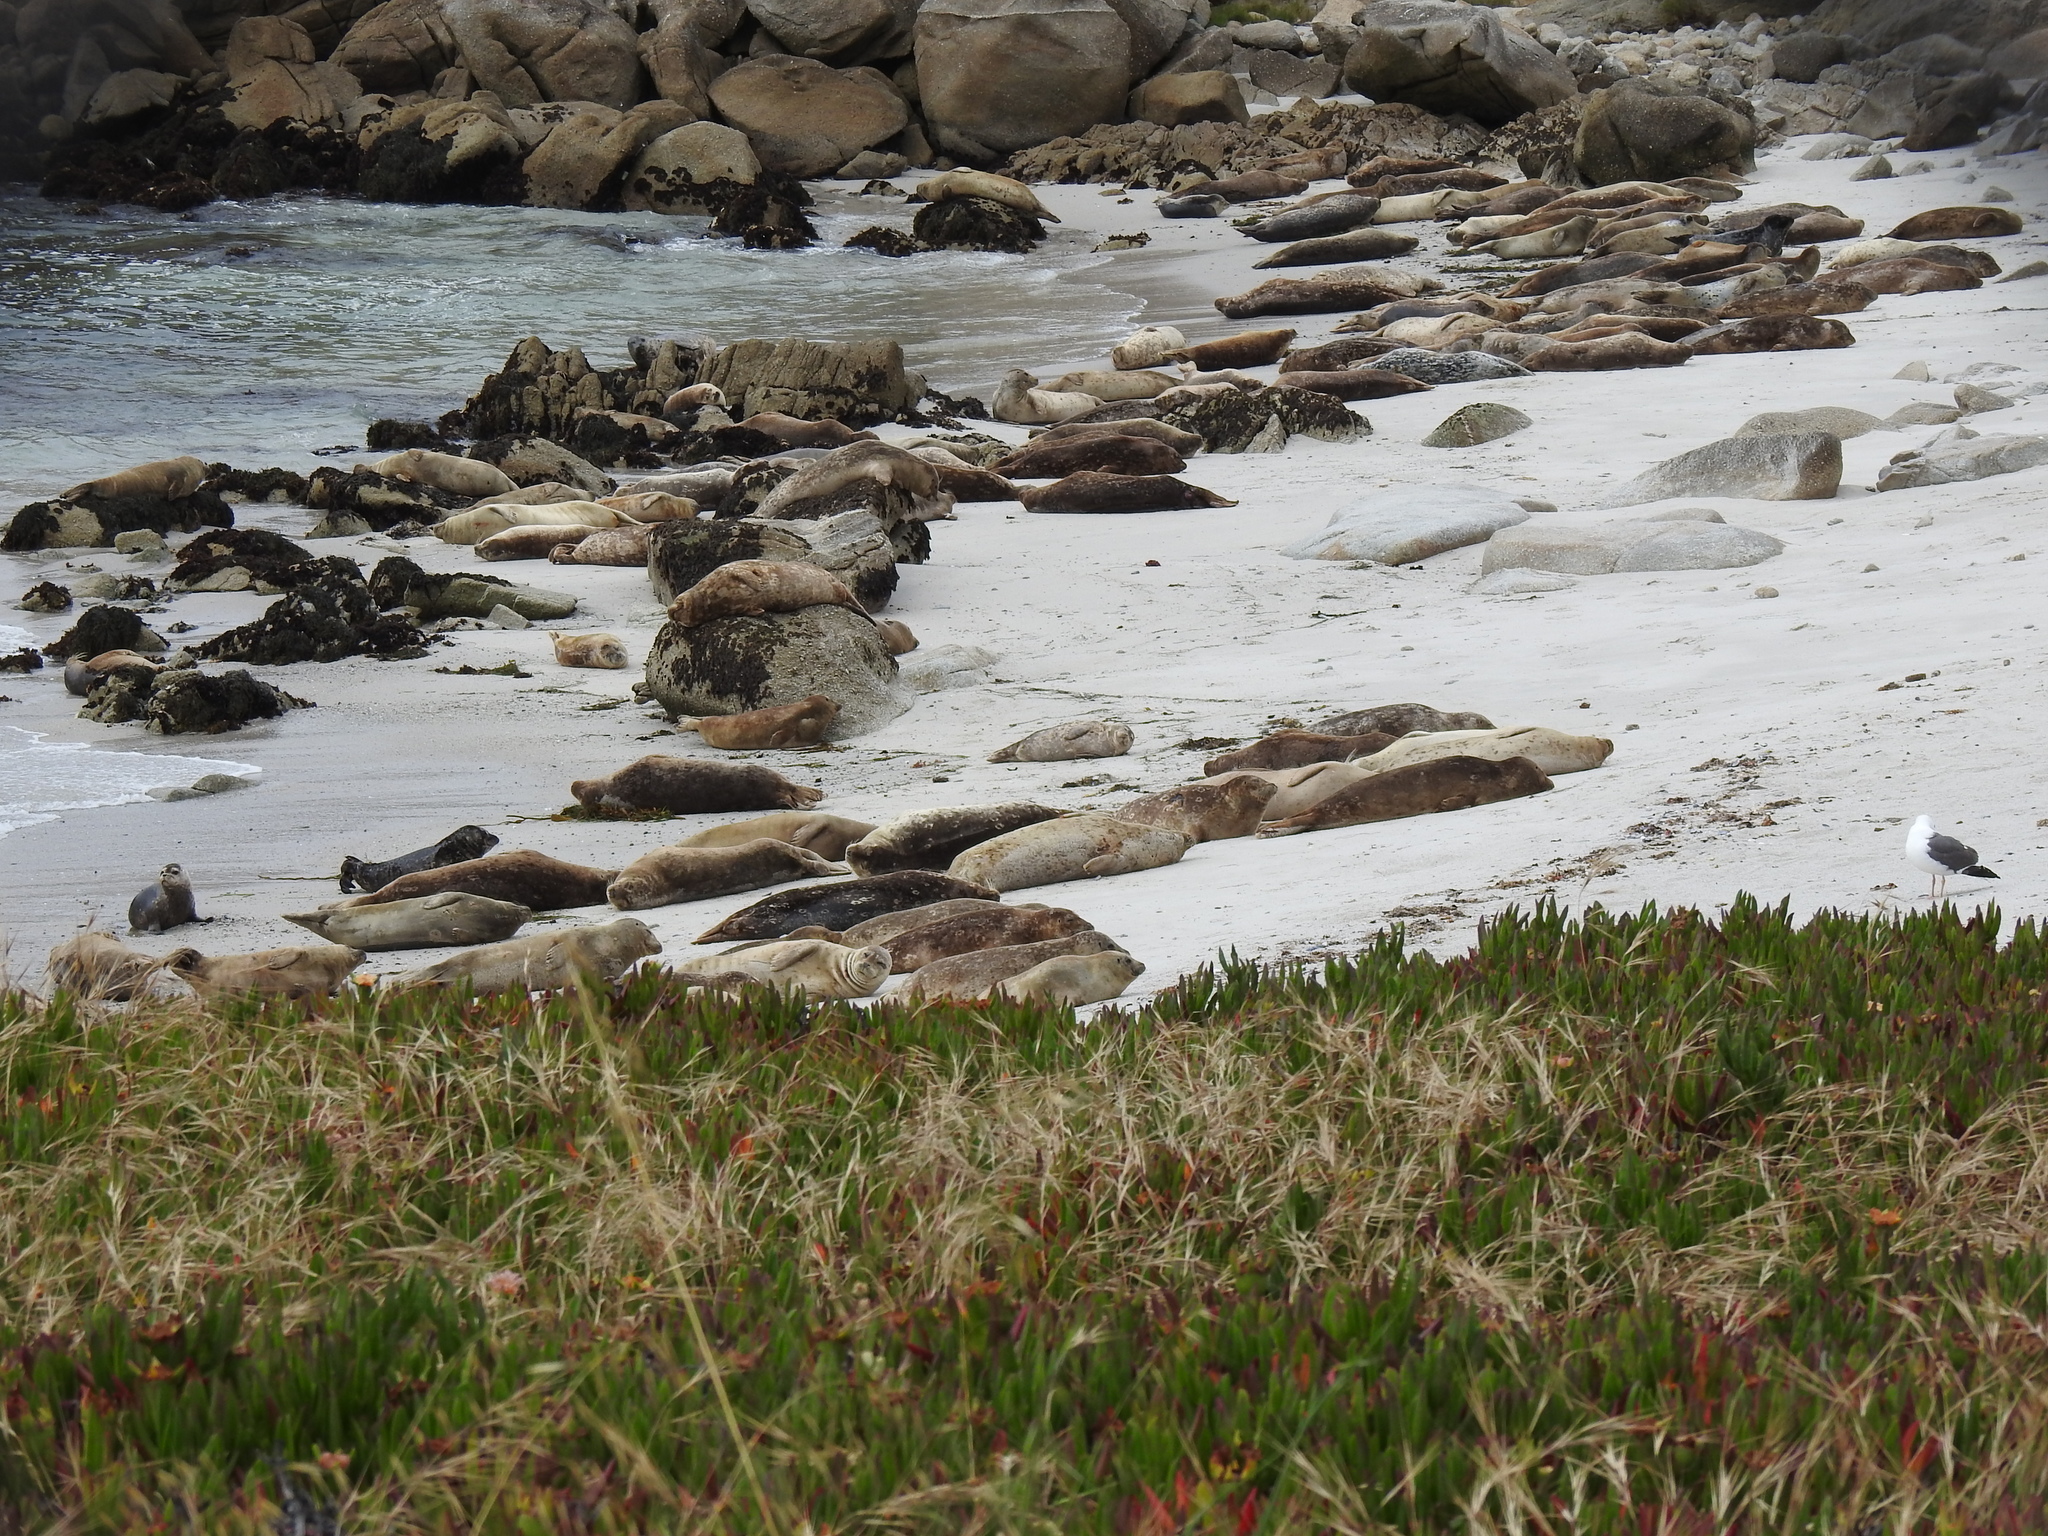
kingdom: Animalia
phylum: Chordata
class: Mammalia
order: Carnivora
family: Phocidae
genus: Phoca
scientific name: Phoca vitulina
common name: Harbor seal
